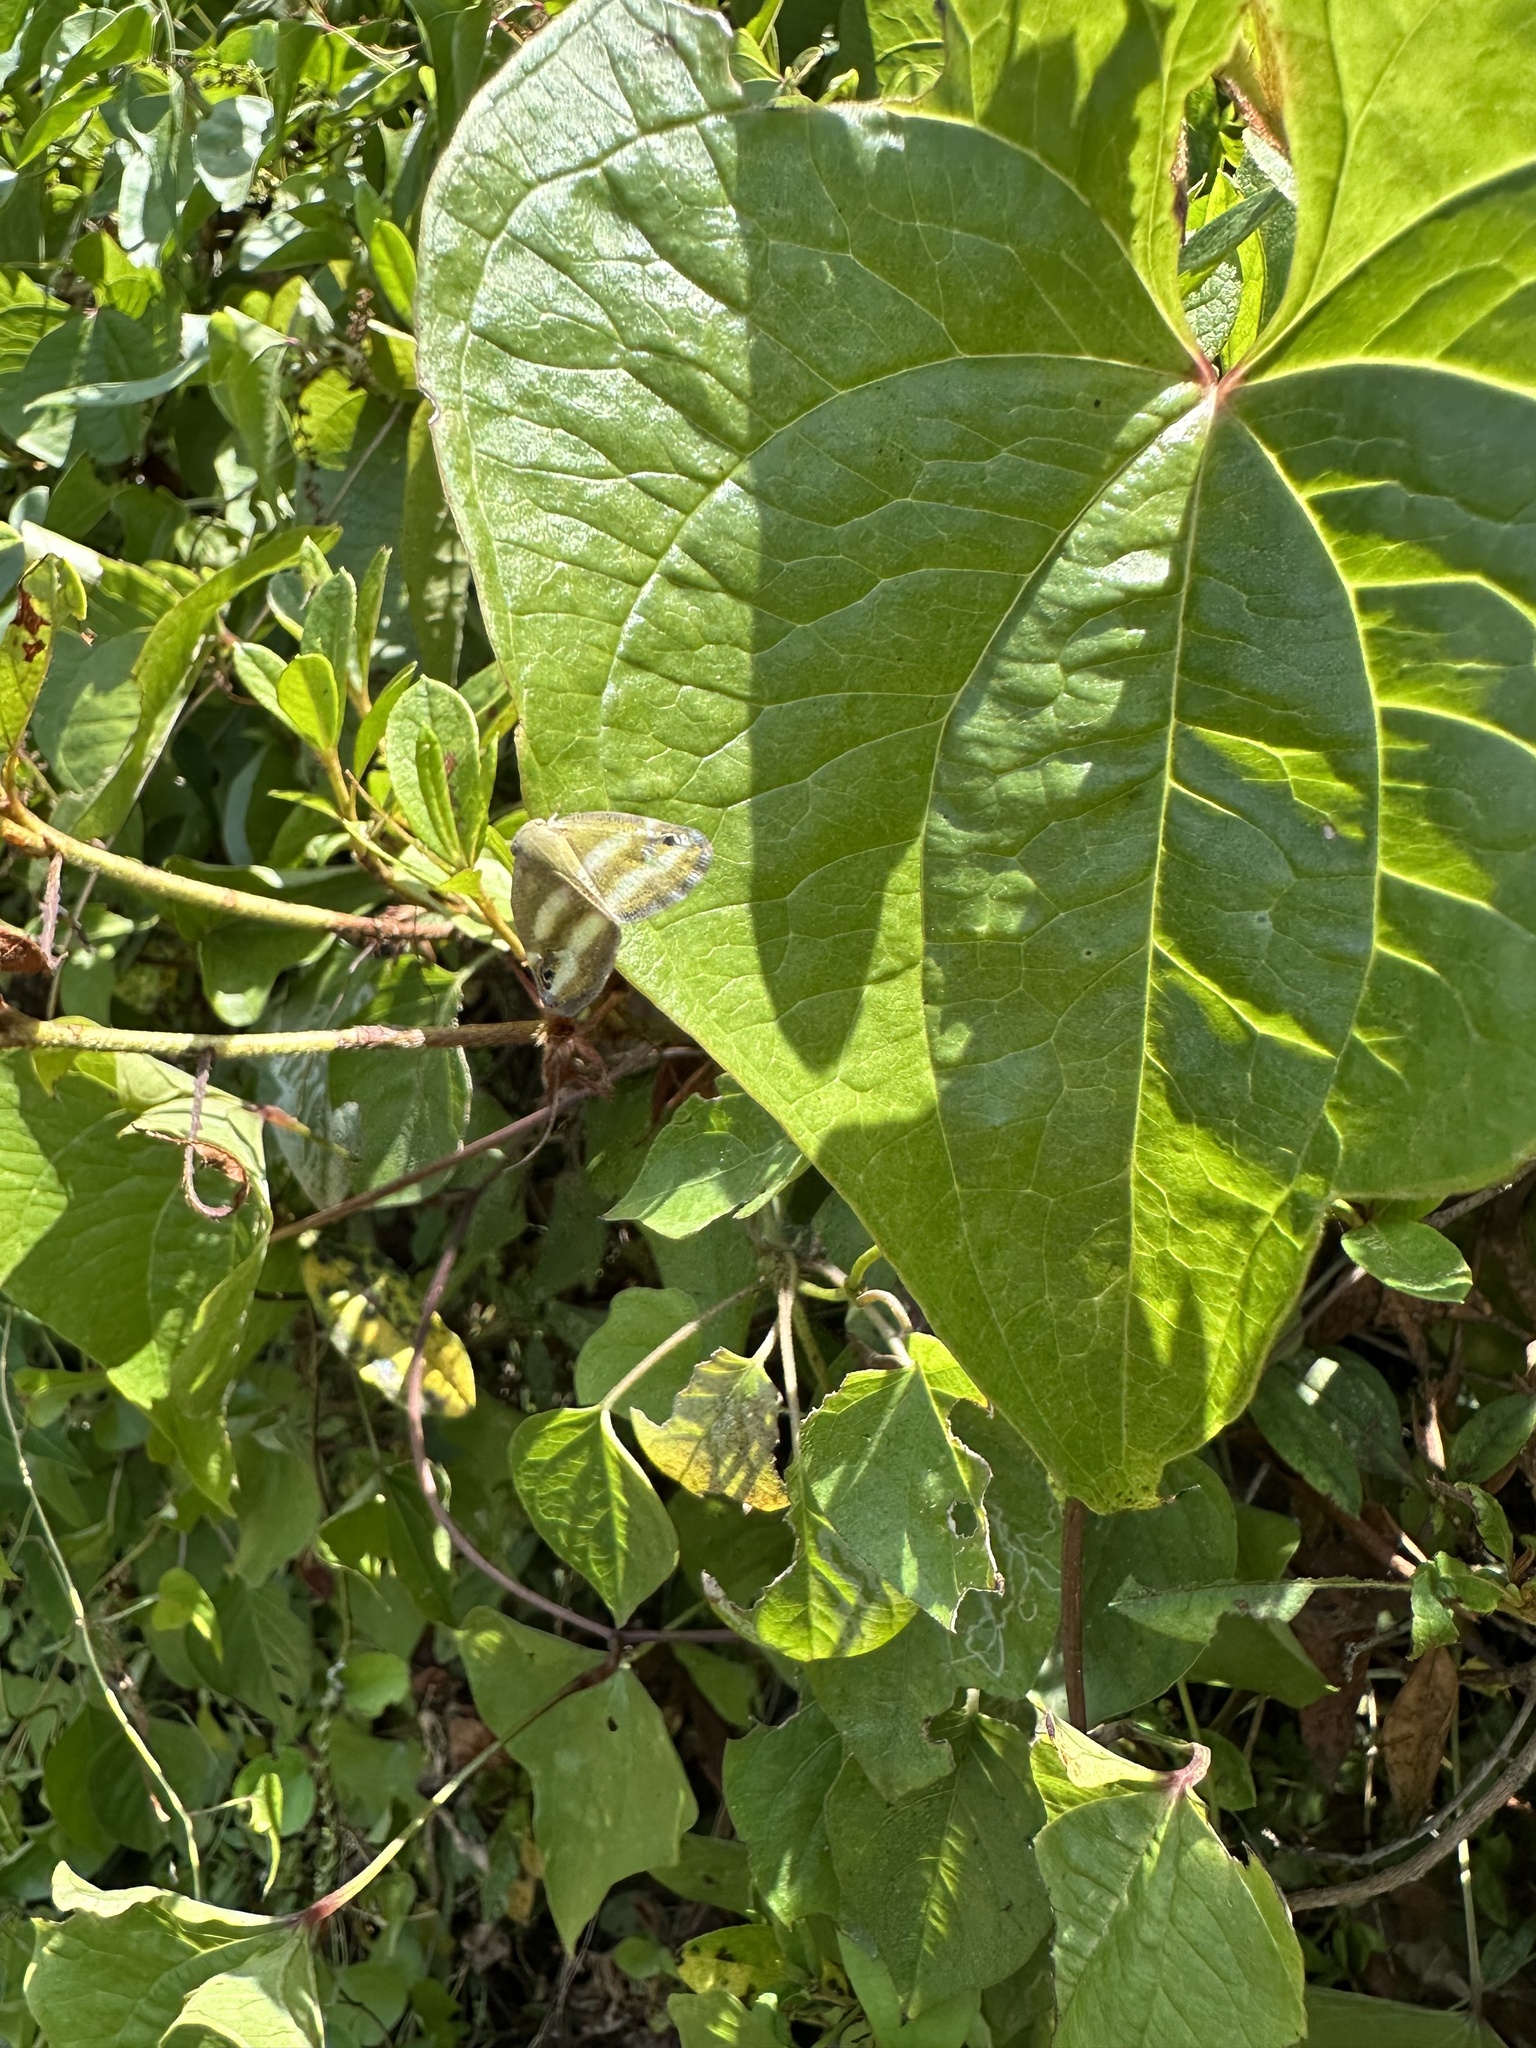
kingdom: Animalia
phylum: Arthropoda
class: Insecta
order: Hemiptera
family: Ricaniidae
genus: Orosanga
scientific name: Orosanga japonica
